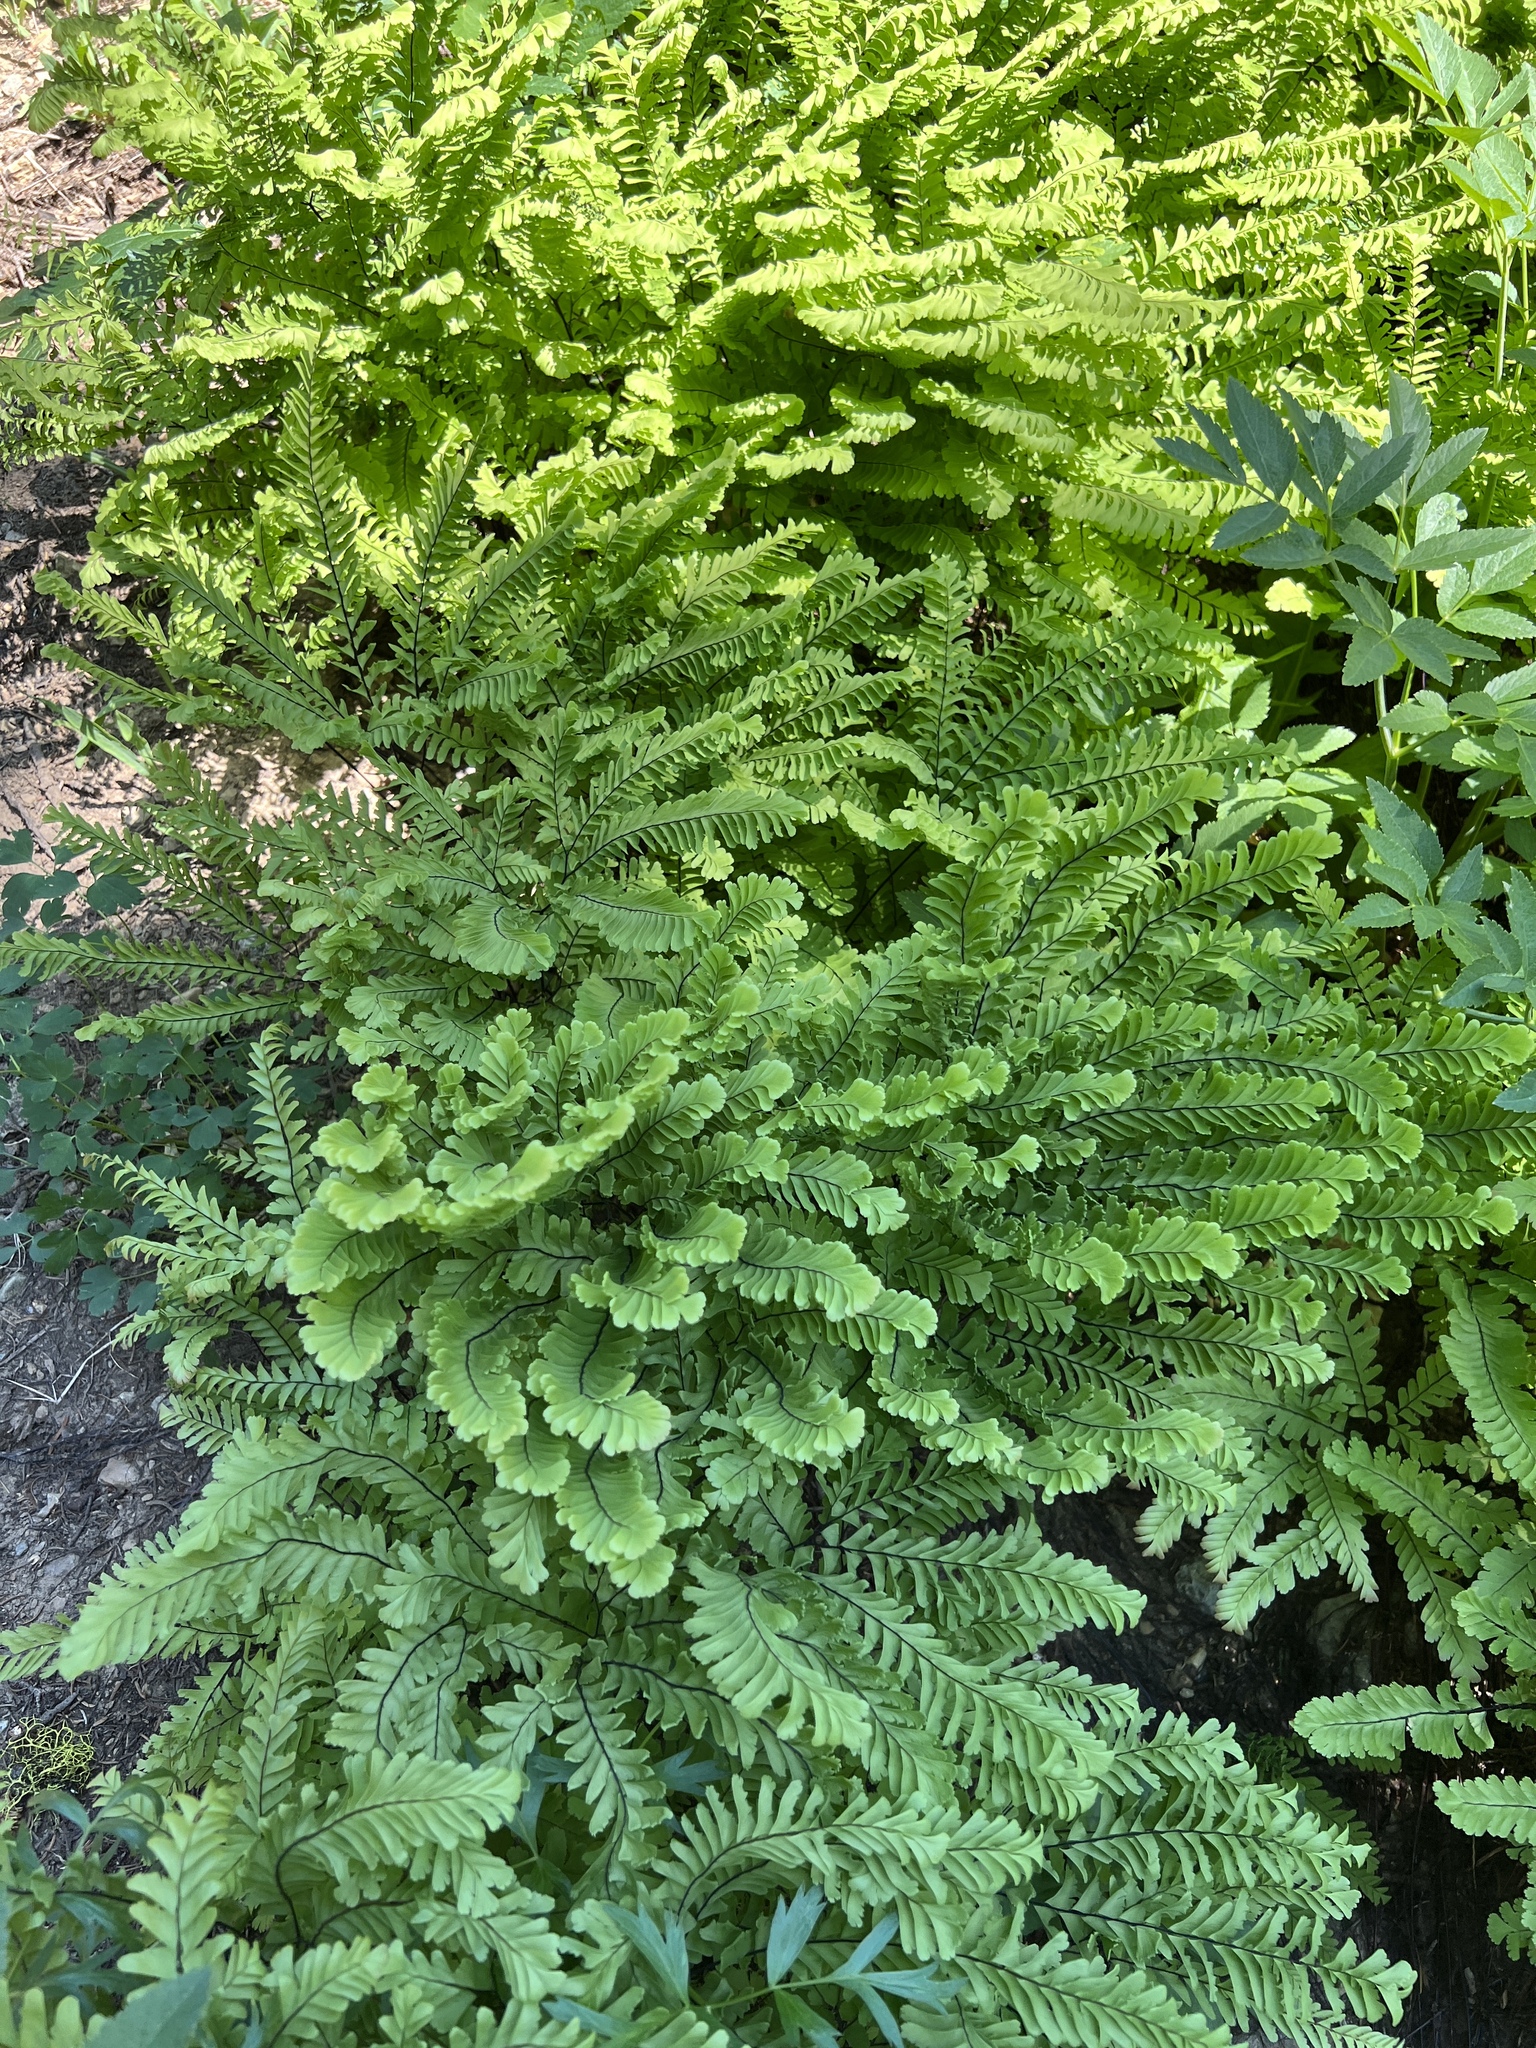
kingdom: Plantae
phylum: Tracheophyta
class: Polypodiopsida
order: Polypodiales
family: Pteridaceae
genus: Adiantum
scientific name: Adiantum aleuticum
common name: Aleutian maidenhair fern
